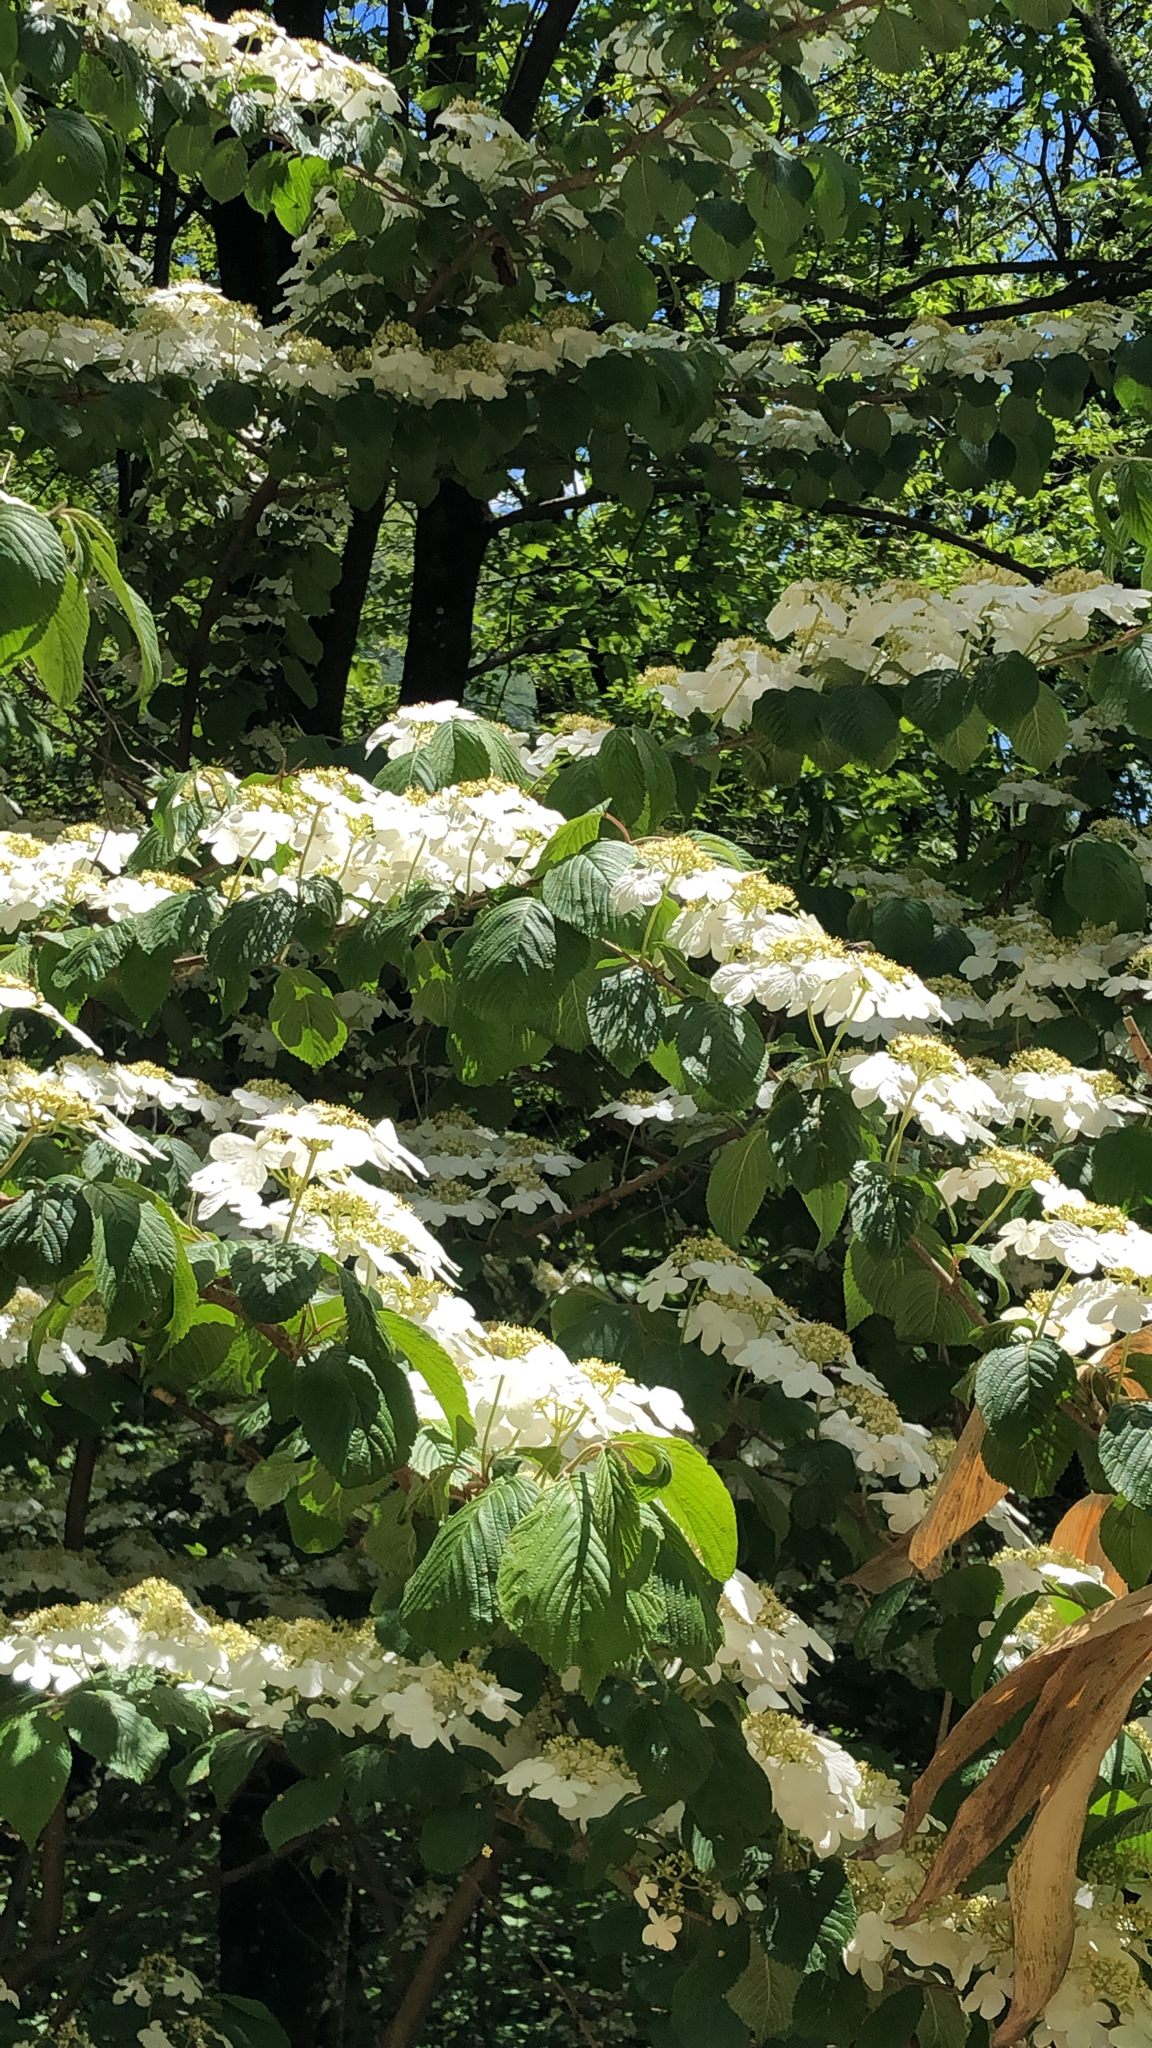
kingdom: Plantae
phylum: Tracheophyta
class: Magnoliopsida
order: Dipsacales
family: Viburnaceae
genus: Viburnum
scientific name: Viburnum plicatum
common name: Japanese snowball
